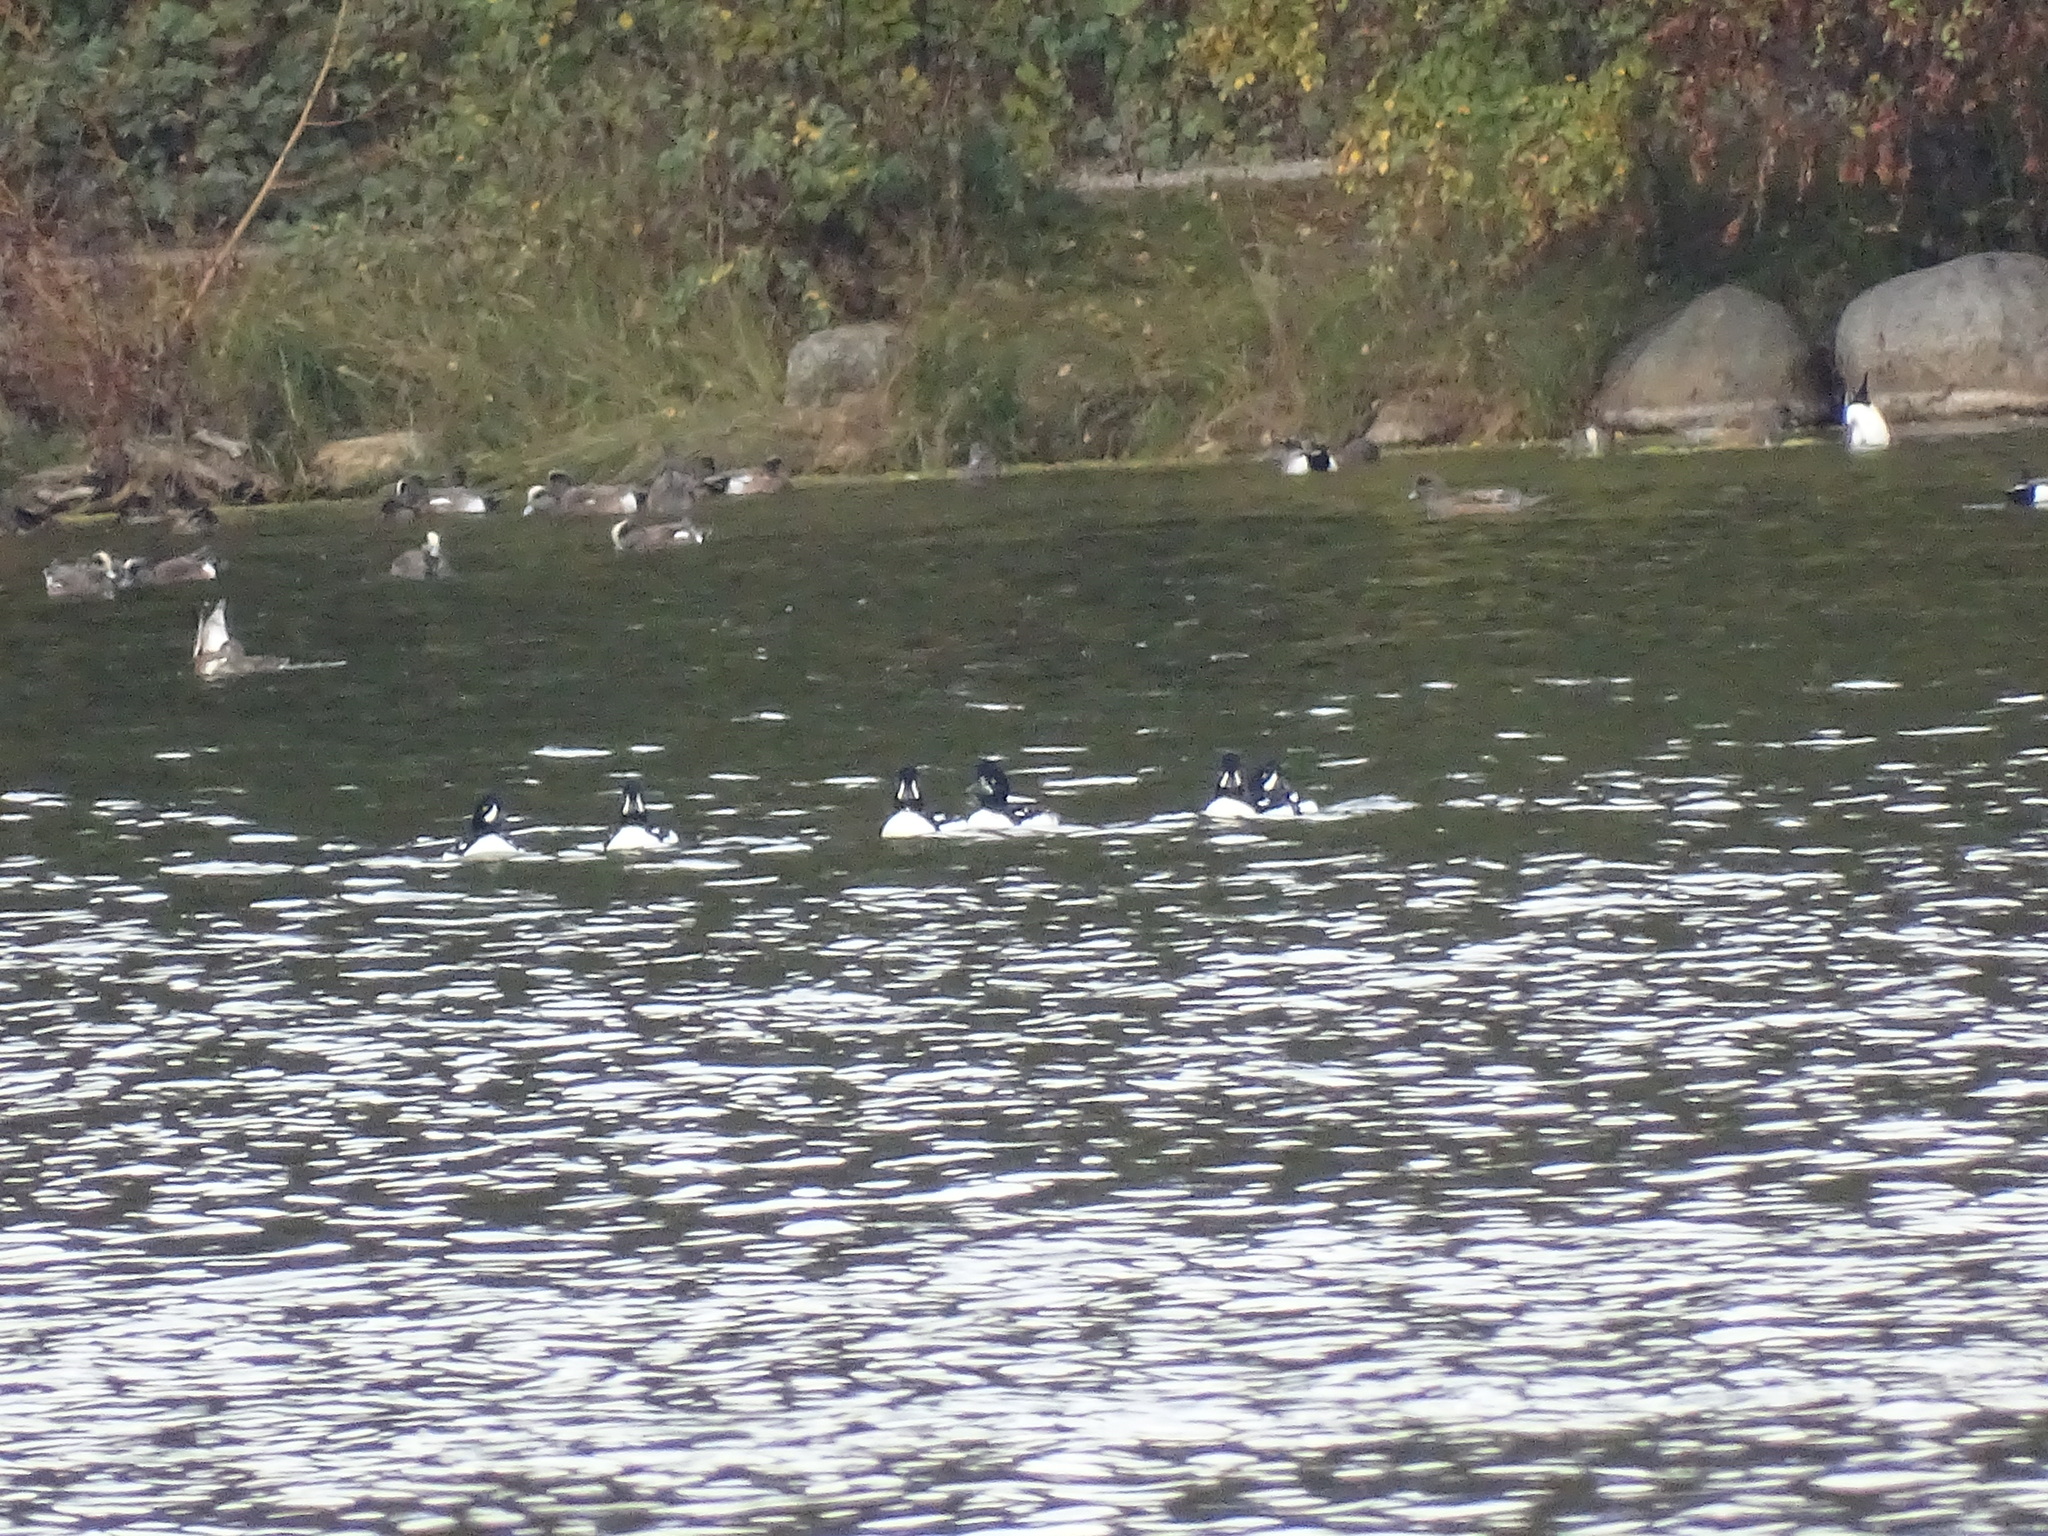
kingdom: Animalia
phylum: Chordata
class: Aves
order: Anseriformes
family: Anatidae
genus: Bucephala
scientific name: Bucephala islandica
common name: Barrow's goldeneye
